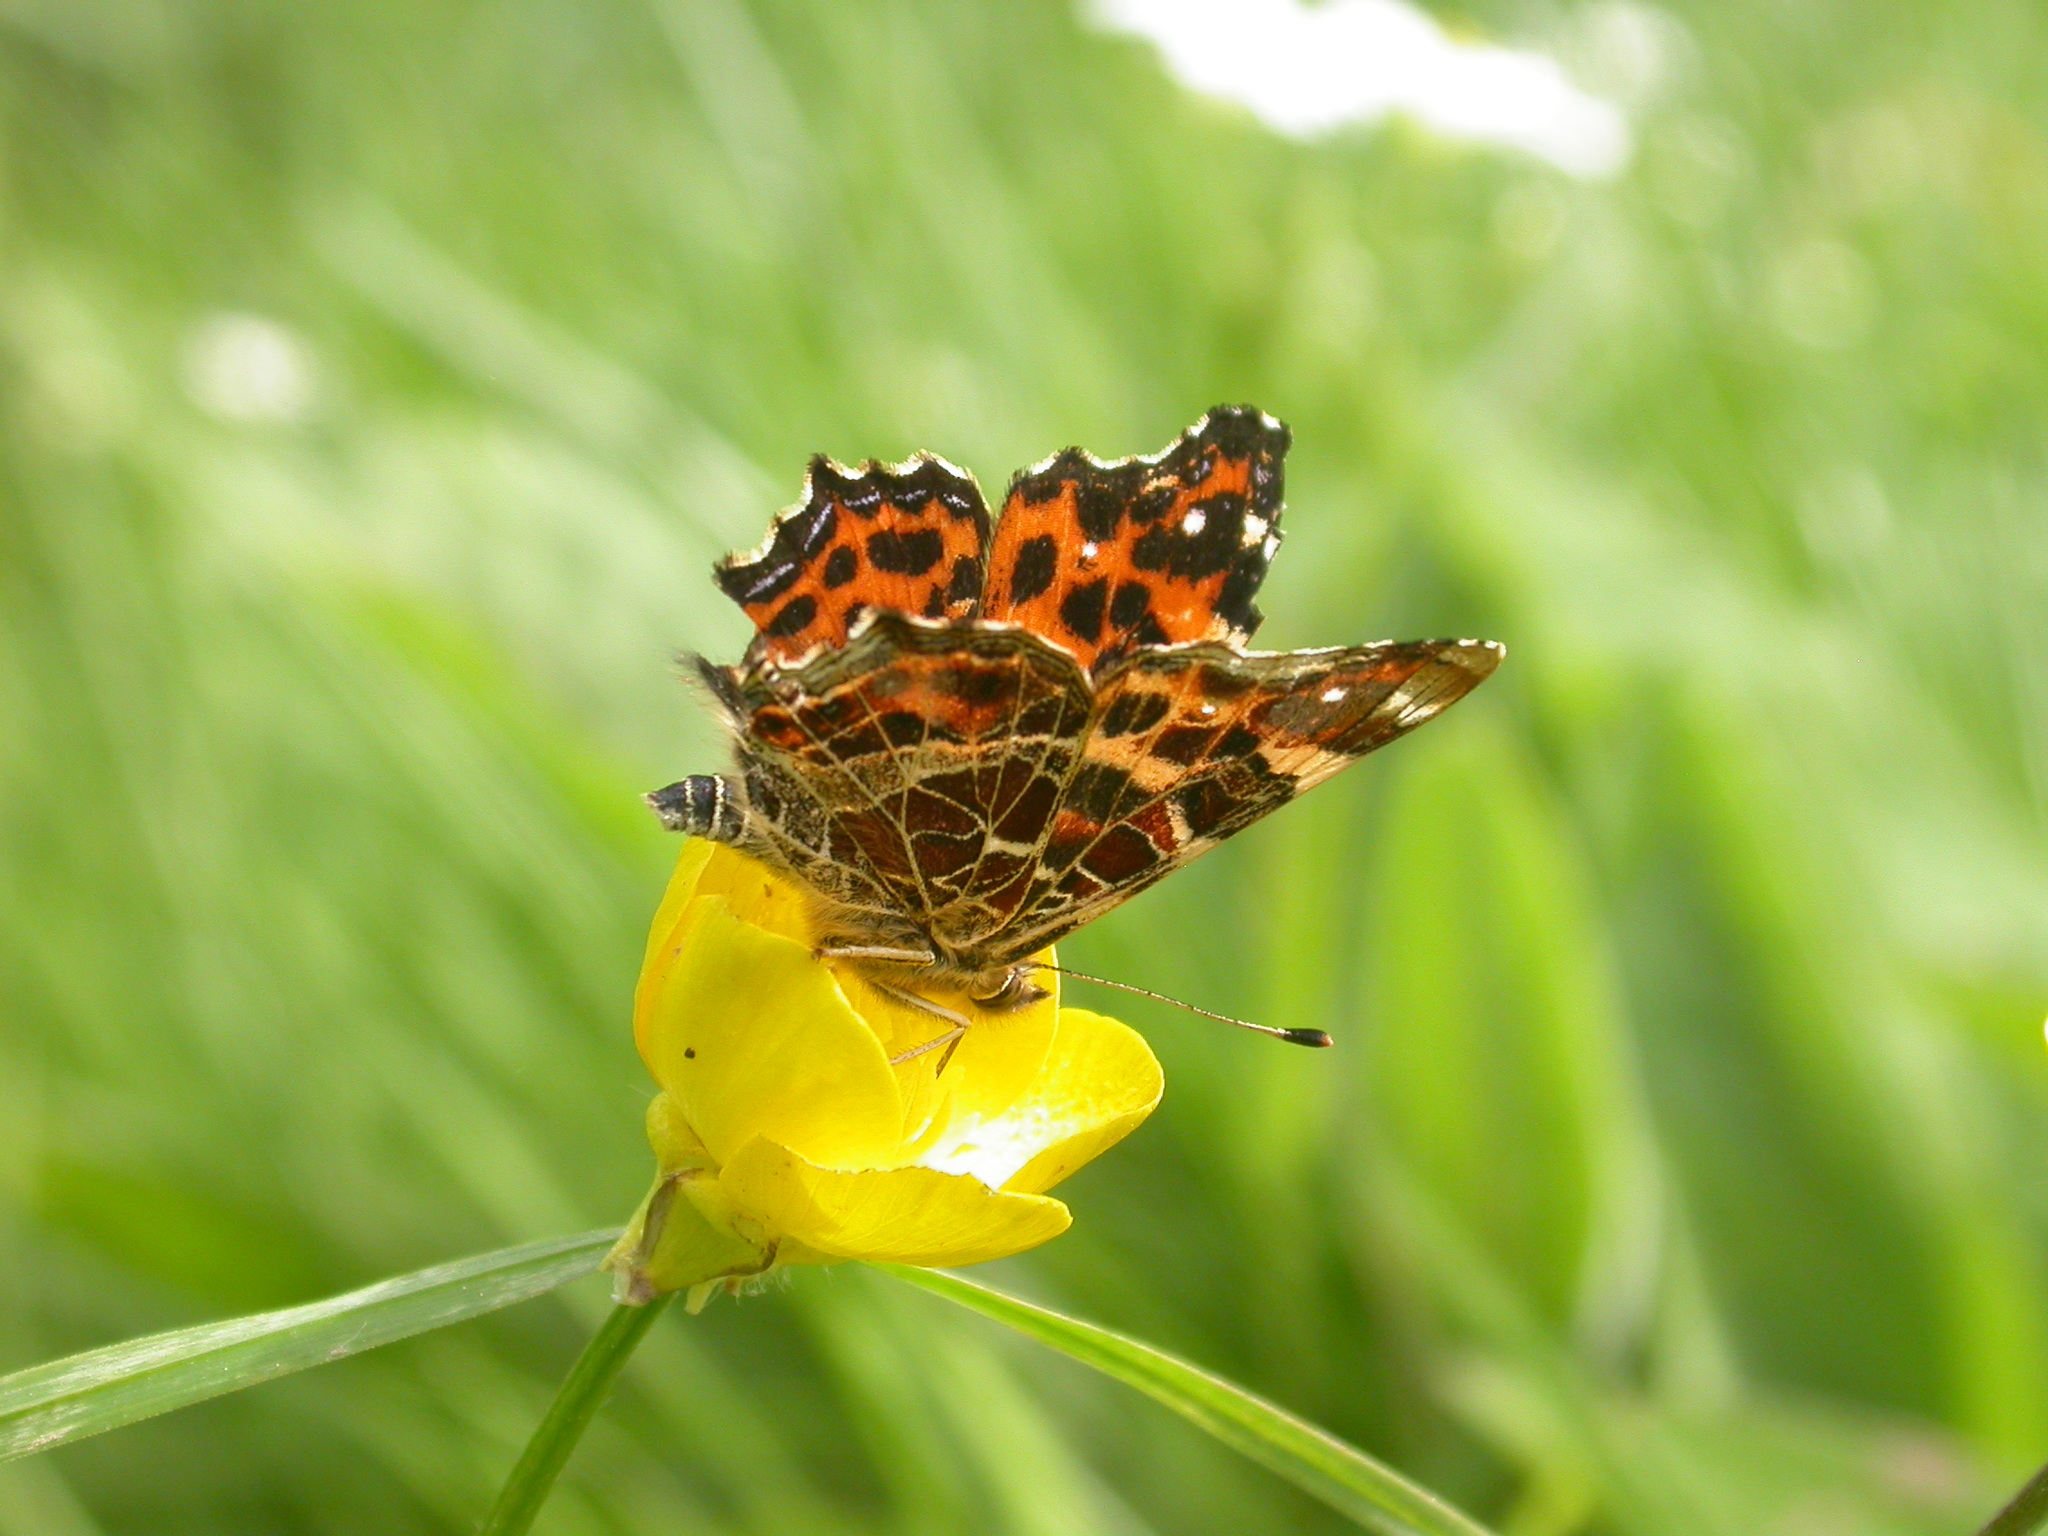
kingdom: Animalia
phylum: Arthropoda
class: Insecta
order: Lepidoptera
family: Nymphalidae
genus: Araschnia
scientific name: Araschnia levana
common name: Map butterfly
